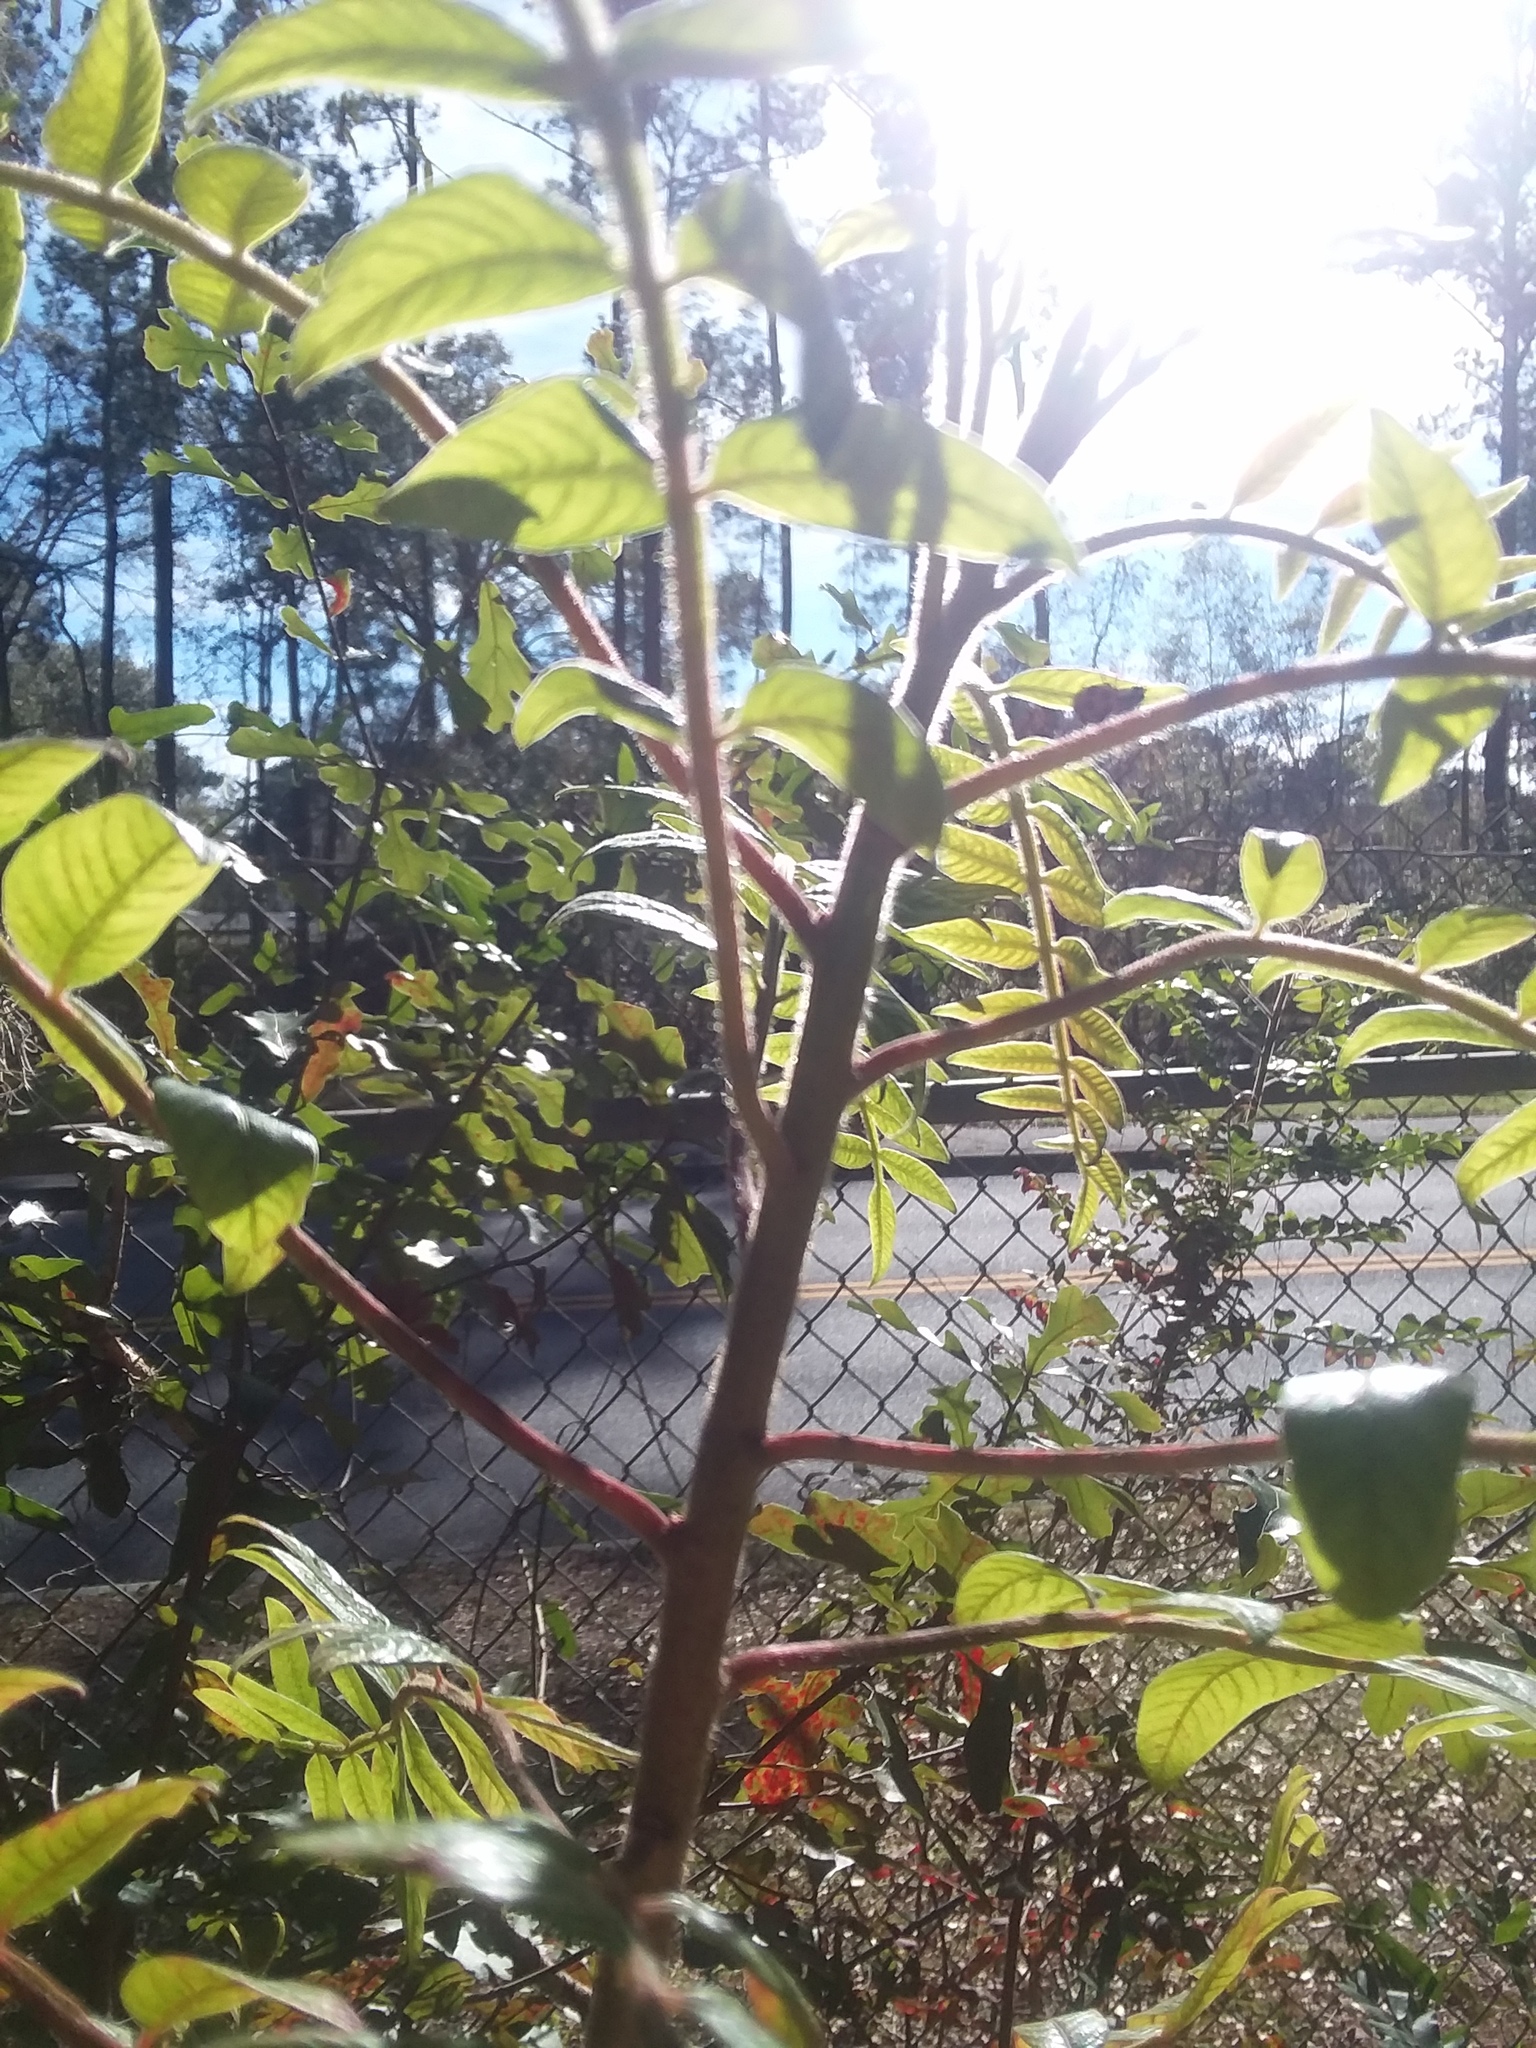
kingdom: Plantae
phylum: Tracheophyta
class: Magnoliopsida
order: Sapindales
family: Anacardiaceae
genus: Rhus
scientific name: Rhus copallina
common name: Shining sumac
